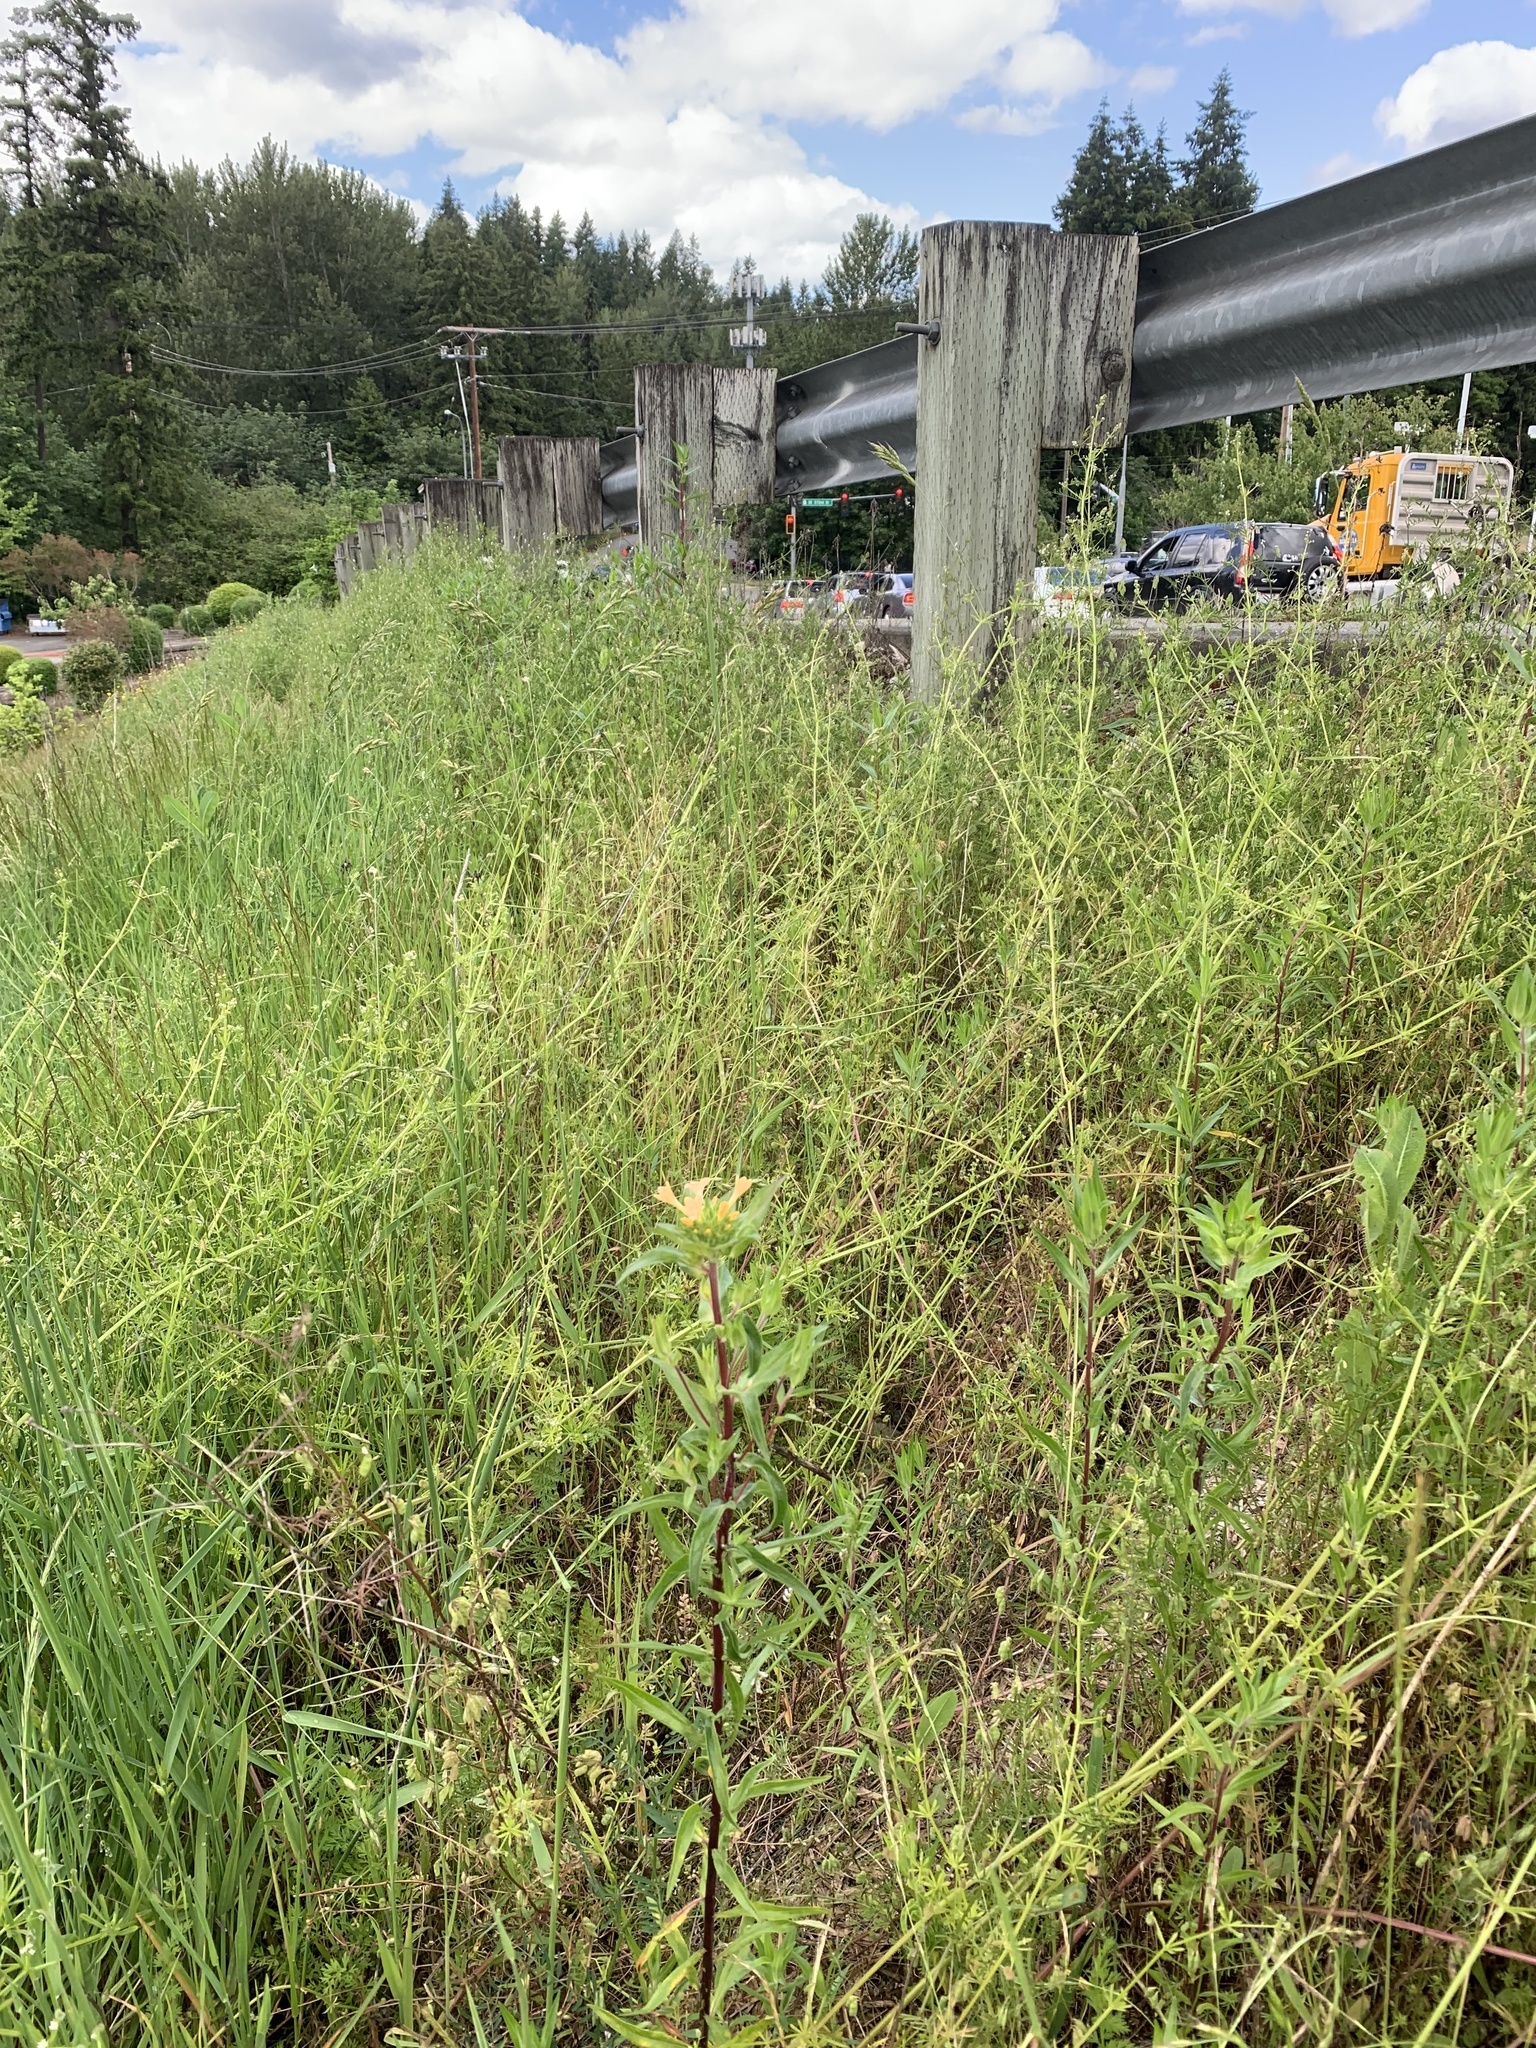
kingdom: Plantae
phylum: Tracheophyta
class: Magnoliopsida
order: Ericales
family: Polemoniaceae
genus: Collomia
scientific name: Collomia grandiflora
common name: California strawflower
